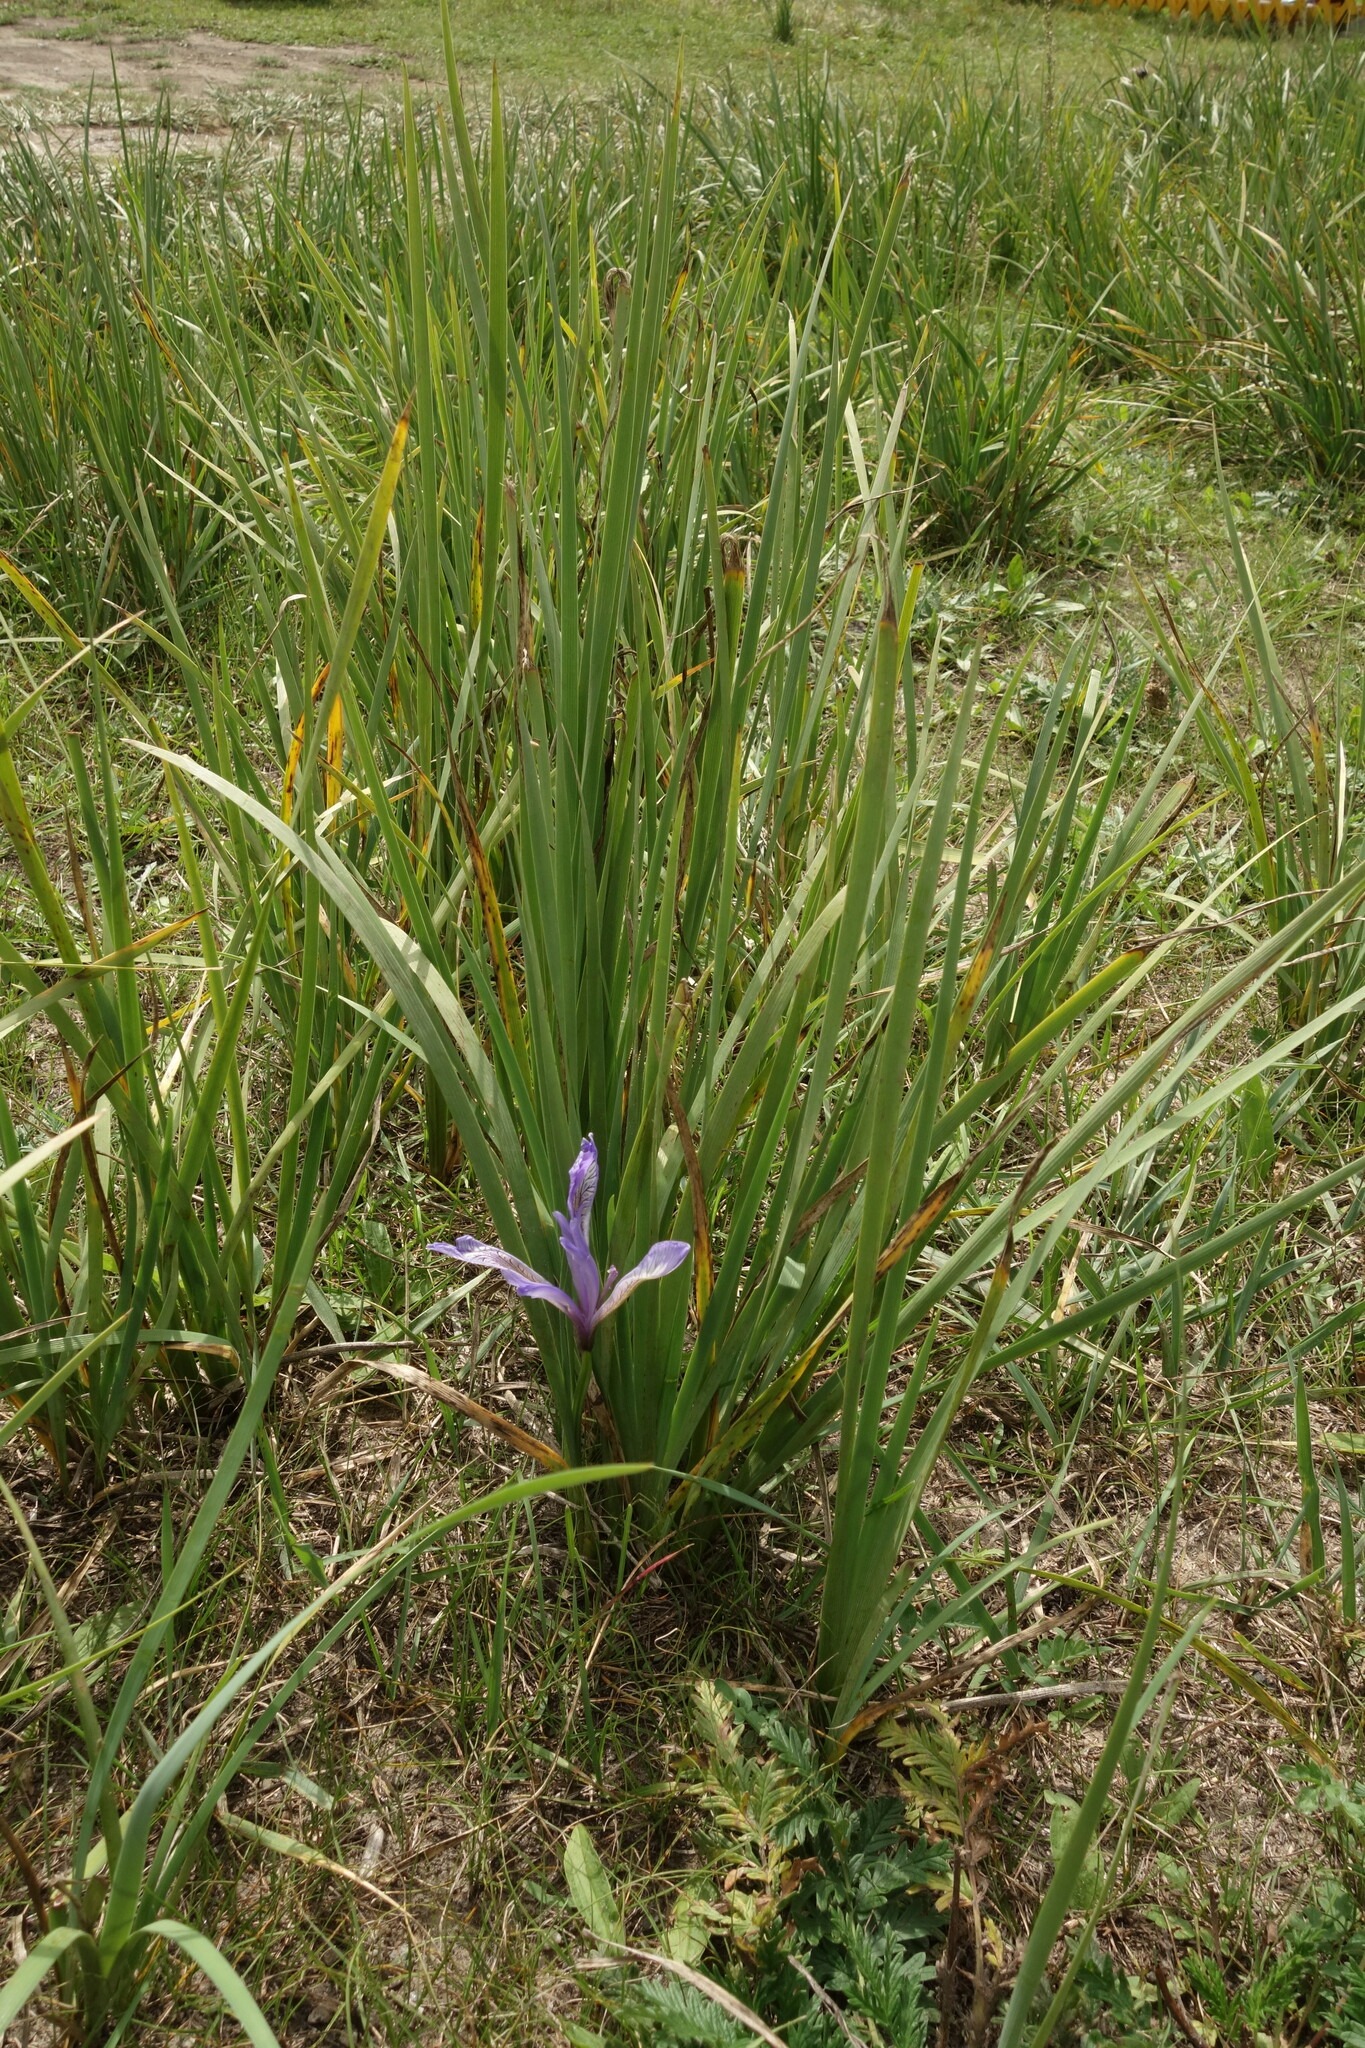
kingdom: Plantae
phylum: Tracheophyta
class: Liliopsida
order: Asparagales
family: Iridaceae
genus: Iris
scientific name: Iris lactea
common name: White-flower chinese iris
